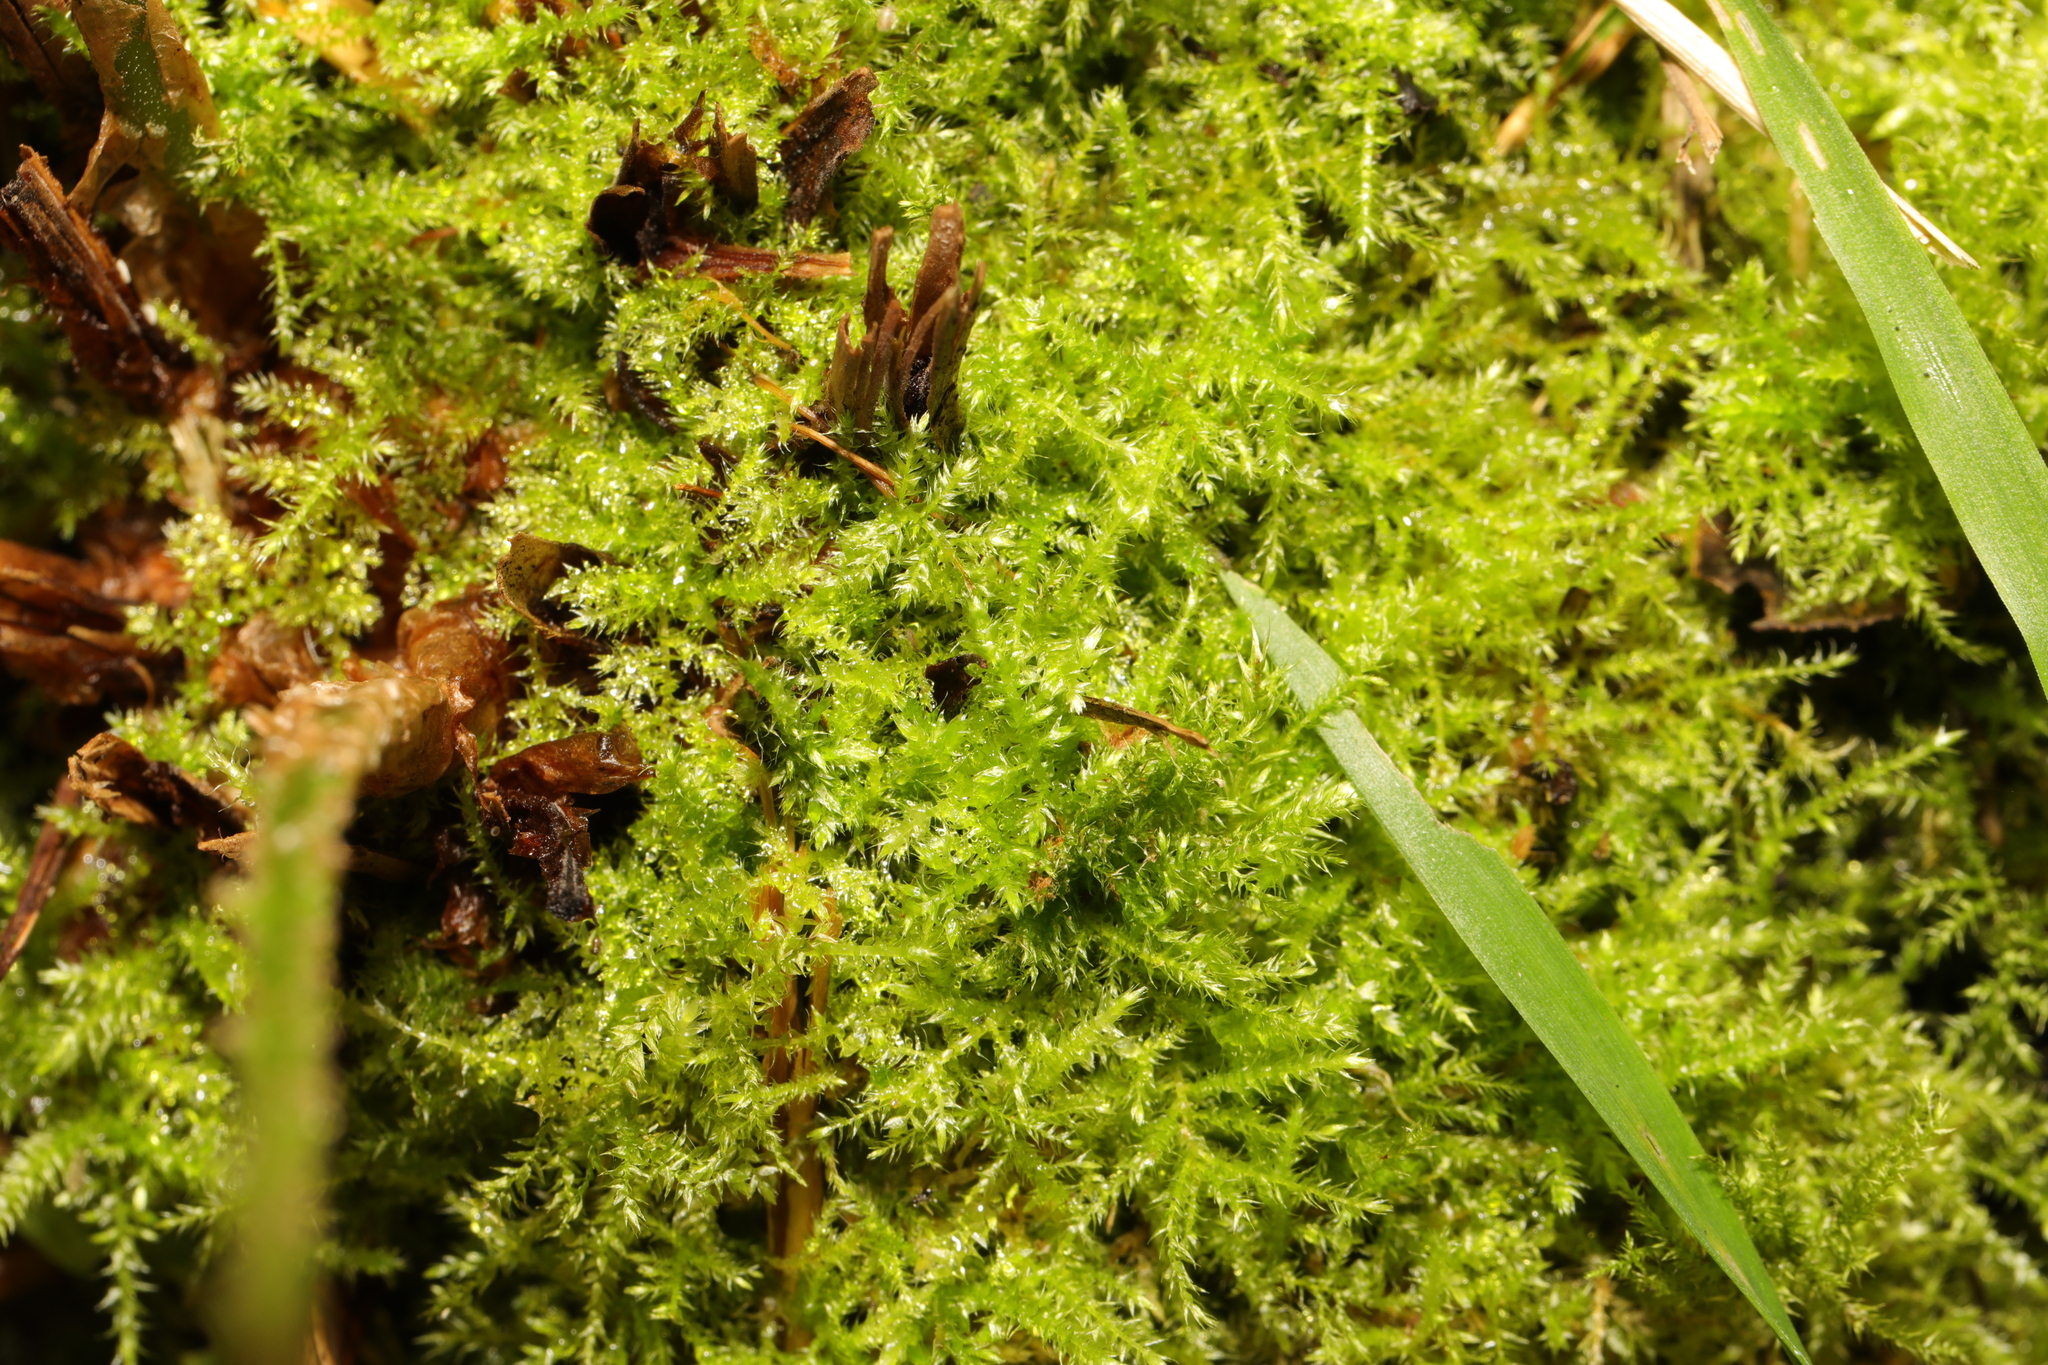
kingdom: Plantae
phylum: Bryophyta
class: Bryopsida
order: Hypnales
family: Brachytheciaceae
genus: Kindbergia
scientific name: Kindbergia praelonga
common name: Slender beaked moss
